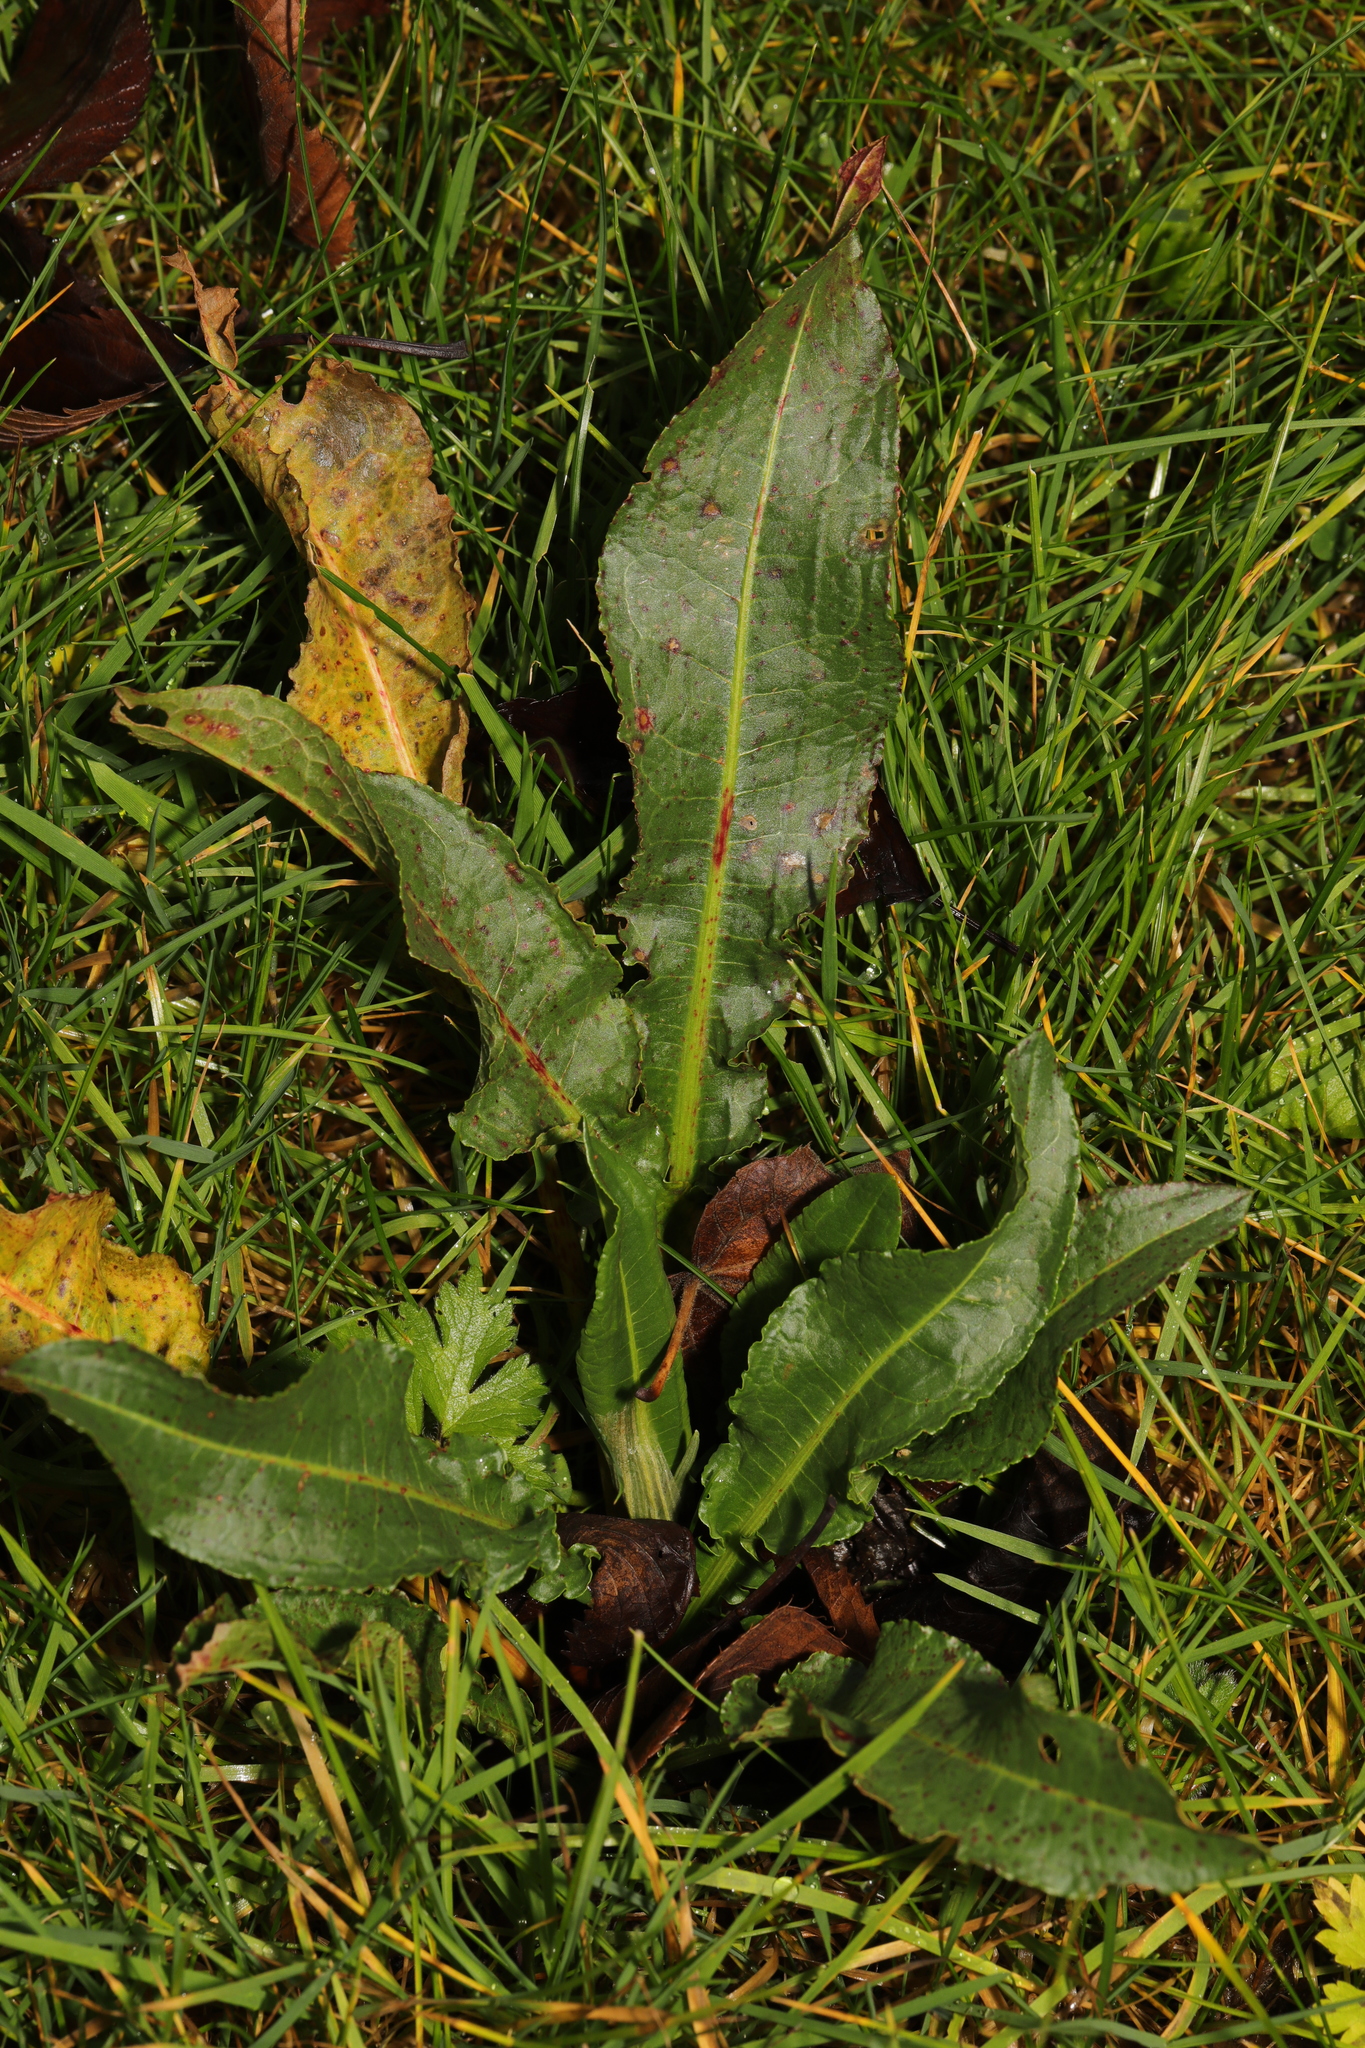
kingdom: Plantae
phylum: Tracheophyta
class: Magnoliopsida
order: Caryophyllales
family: Polygonaceae
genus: Rumex
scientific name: Rumex crispus
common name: Curled dock
